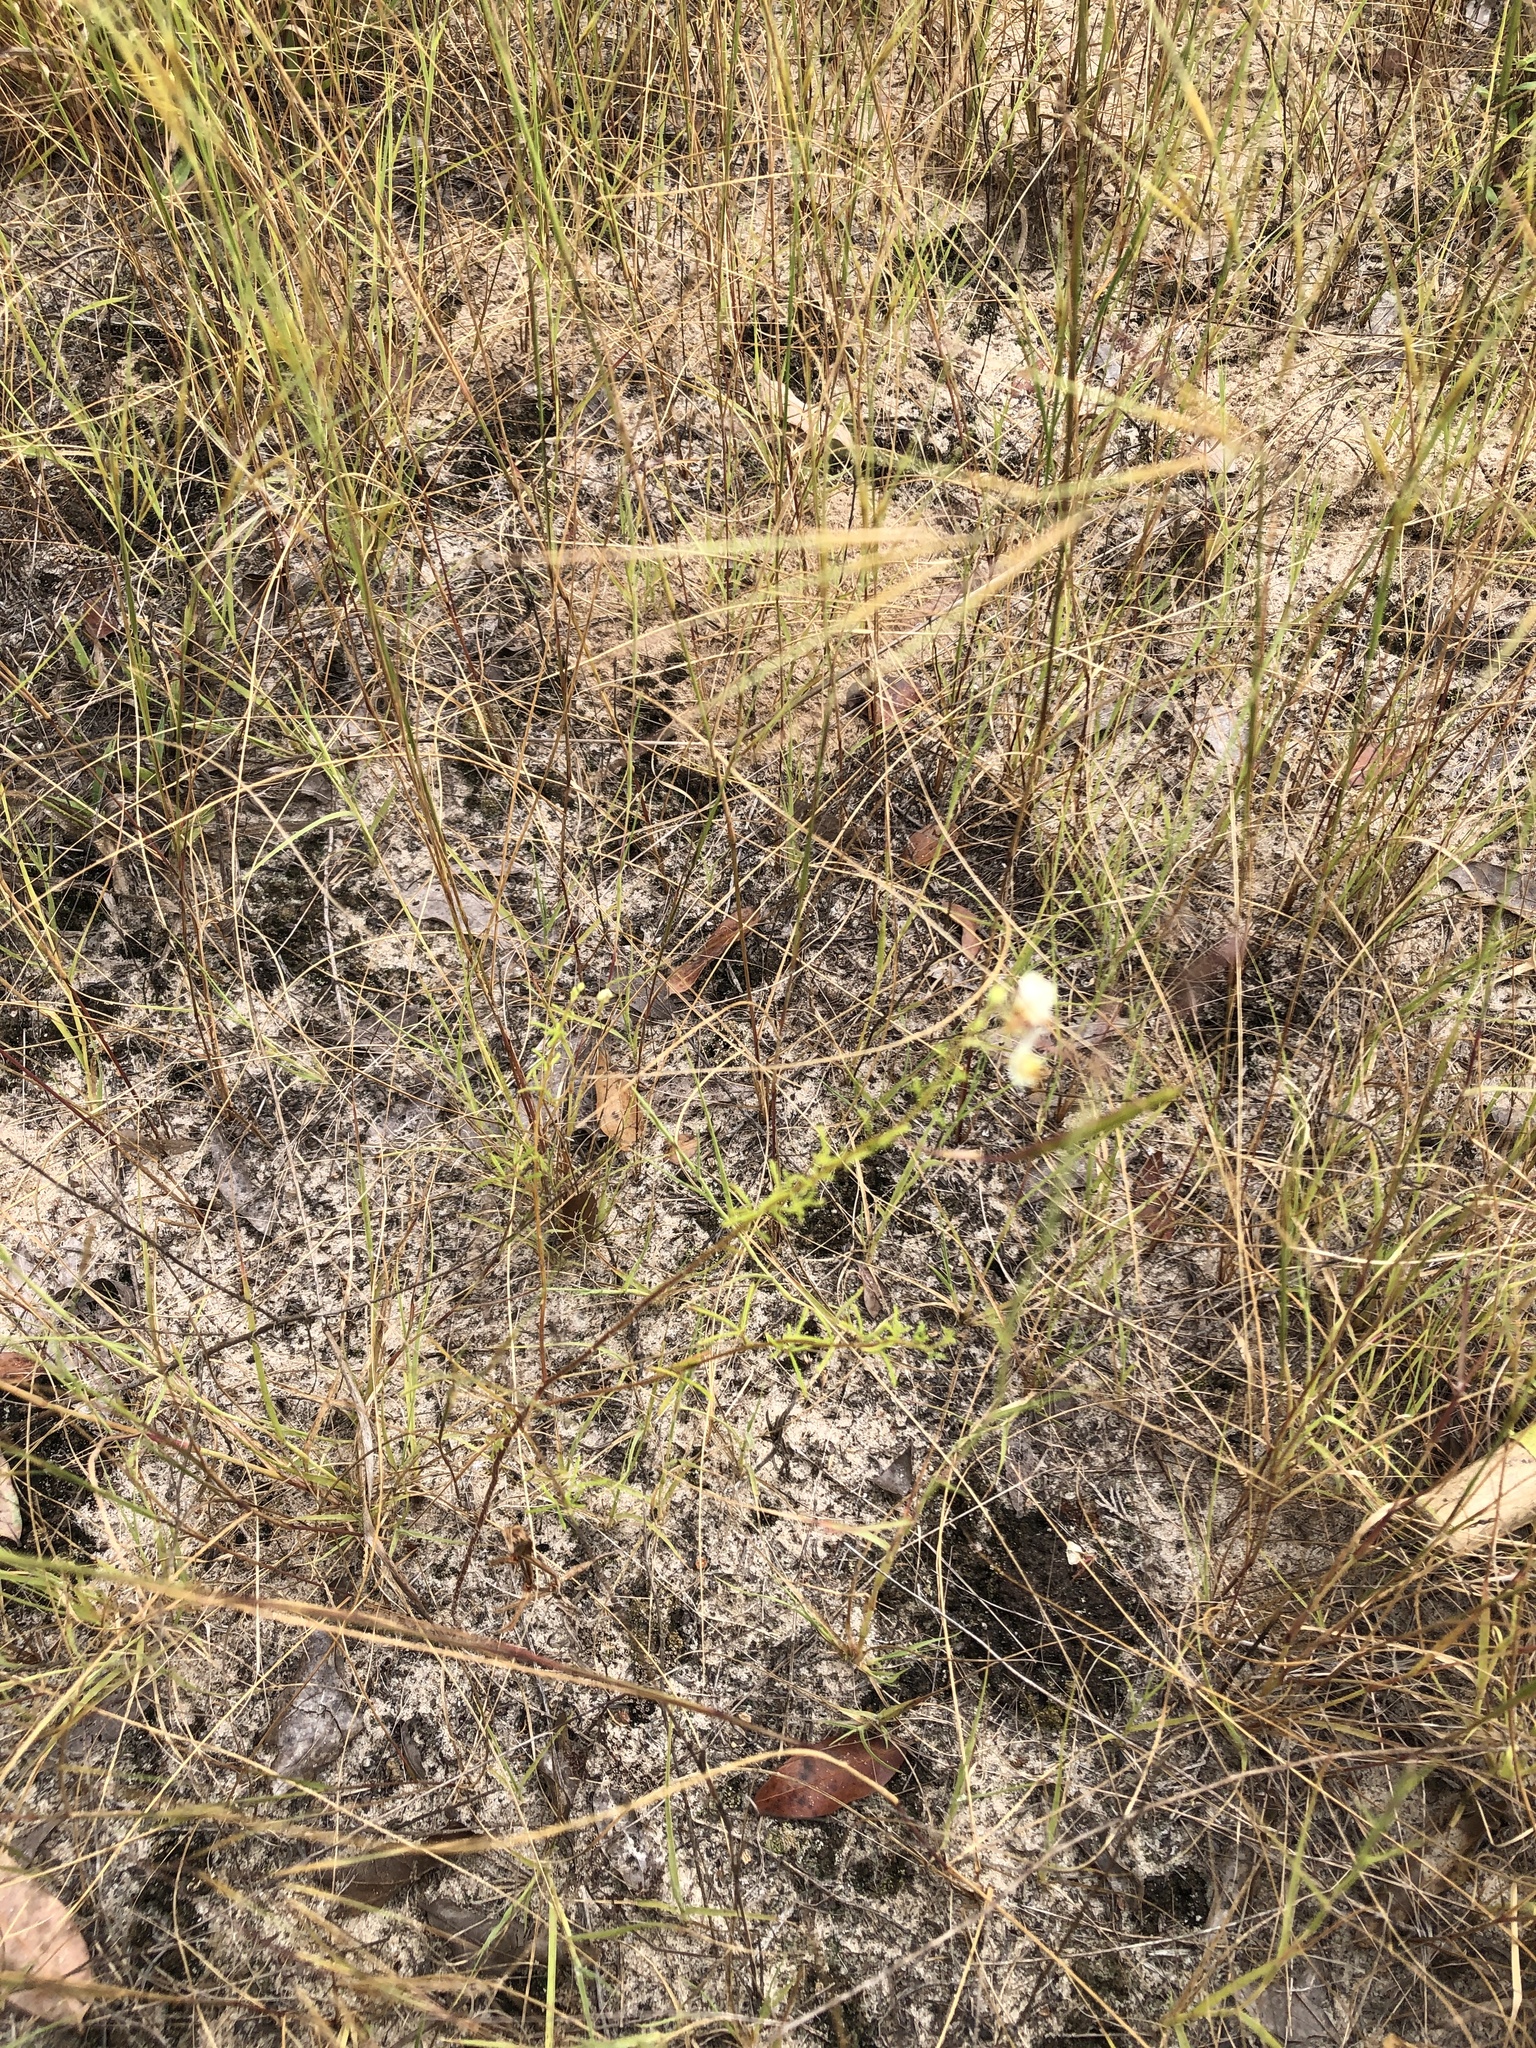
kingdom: Plantae
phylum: Tracheophyta
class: Magnoliopsida
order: Brassicales
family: Cleomaceae
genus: Polanisia
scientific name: Polanisia erosa
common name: Large clammyweed
